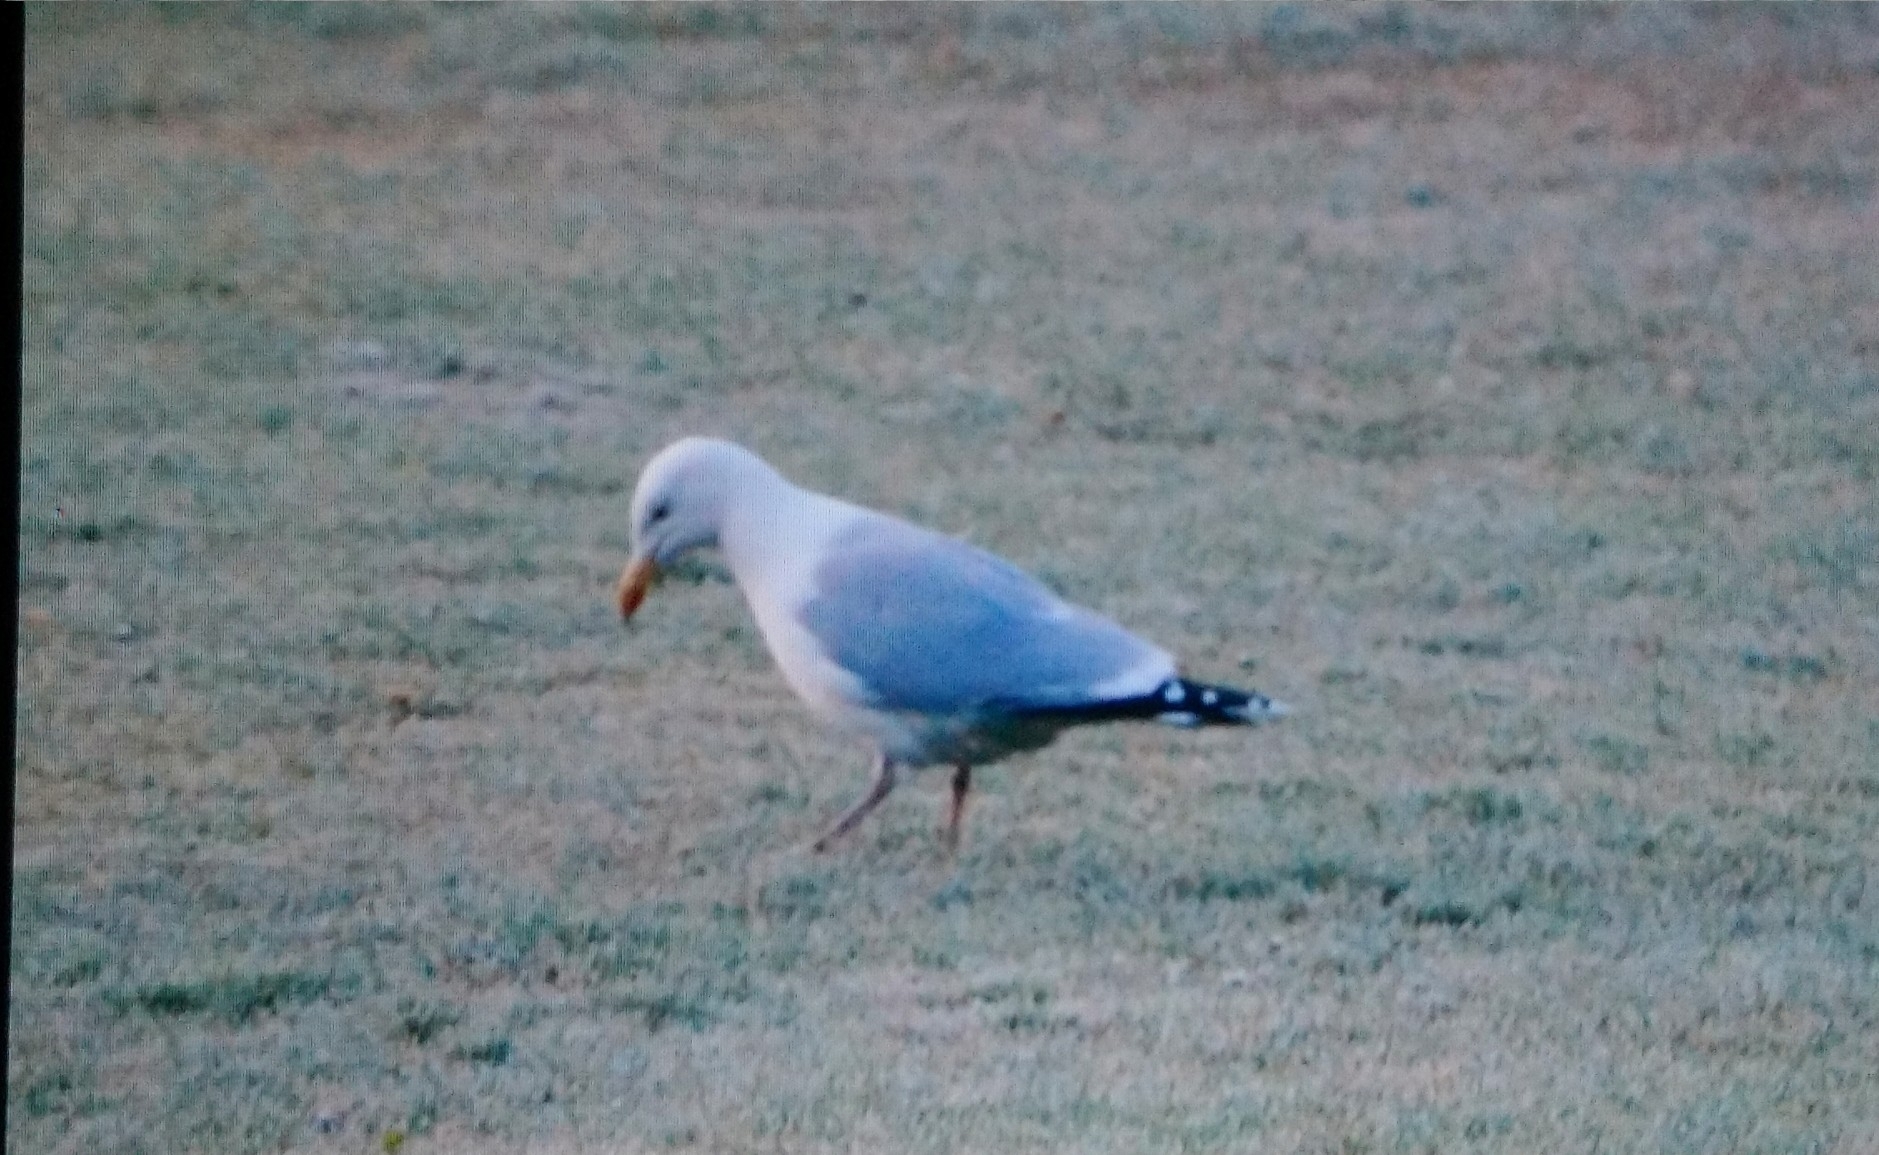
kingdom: Animalia
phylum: Chordata
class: Aves
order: Charadriiformes
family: Laridae
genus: Larus
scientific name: Larus argentatus
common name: Herring gull
